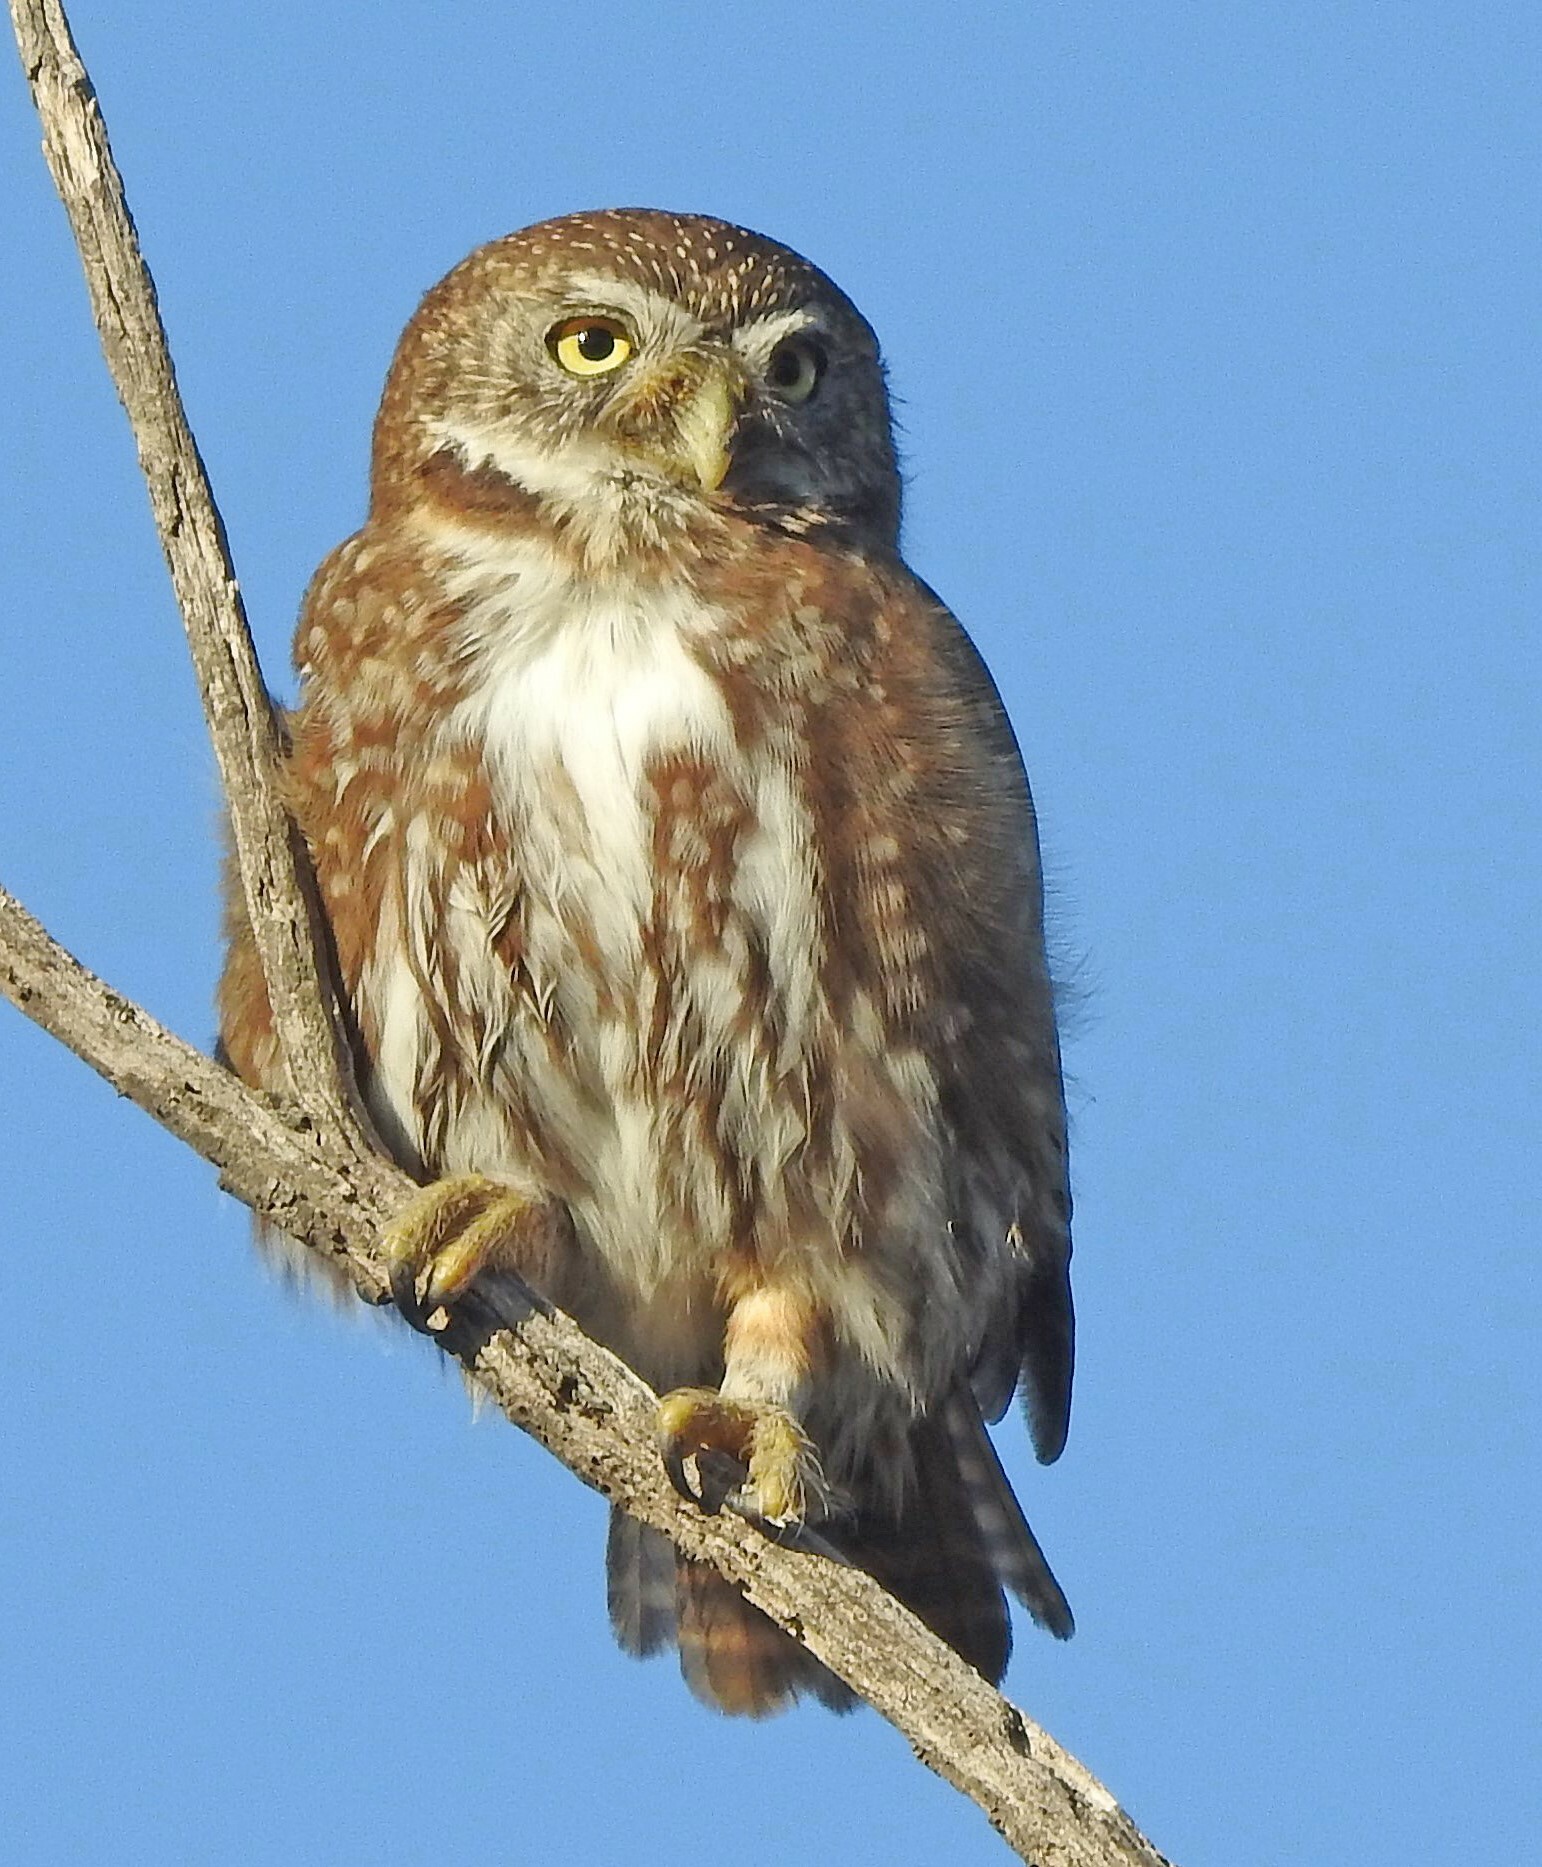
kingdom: Animalia
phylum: Chordata
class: Aves
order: Strigiformes
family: Strigidae
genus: Glaucidium
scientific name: Glaucidium nana
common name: Austral pygmy-owl
